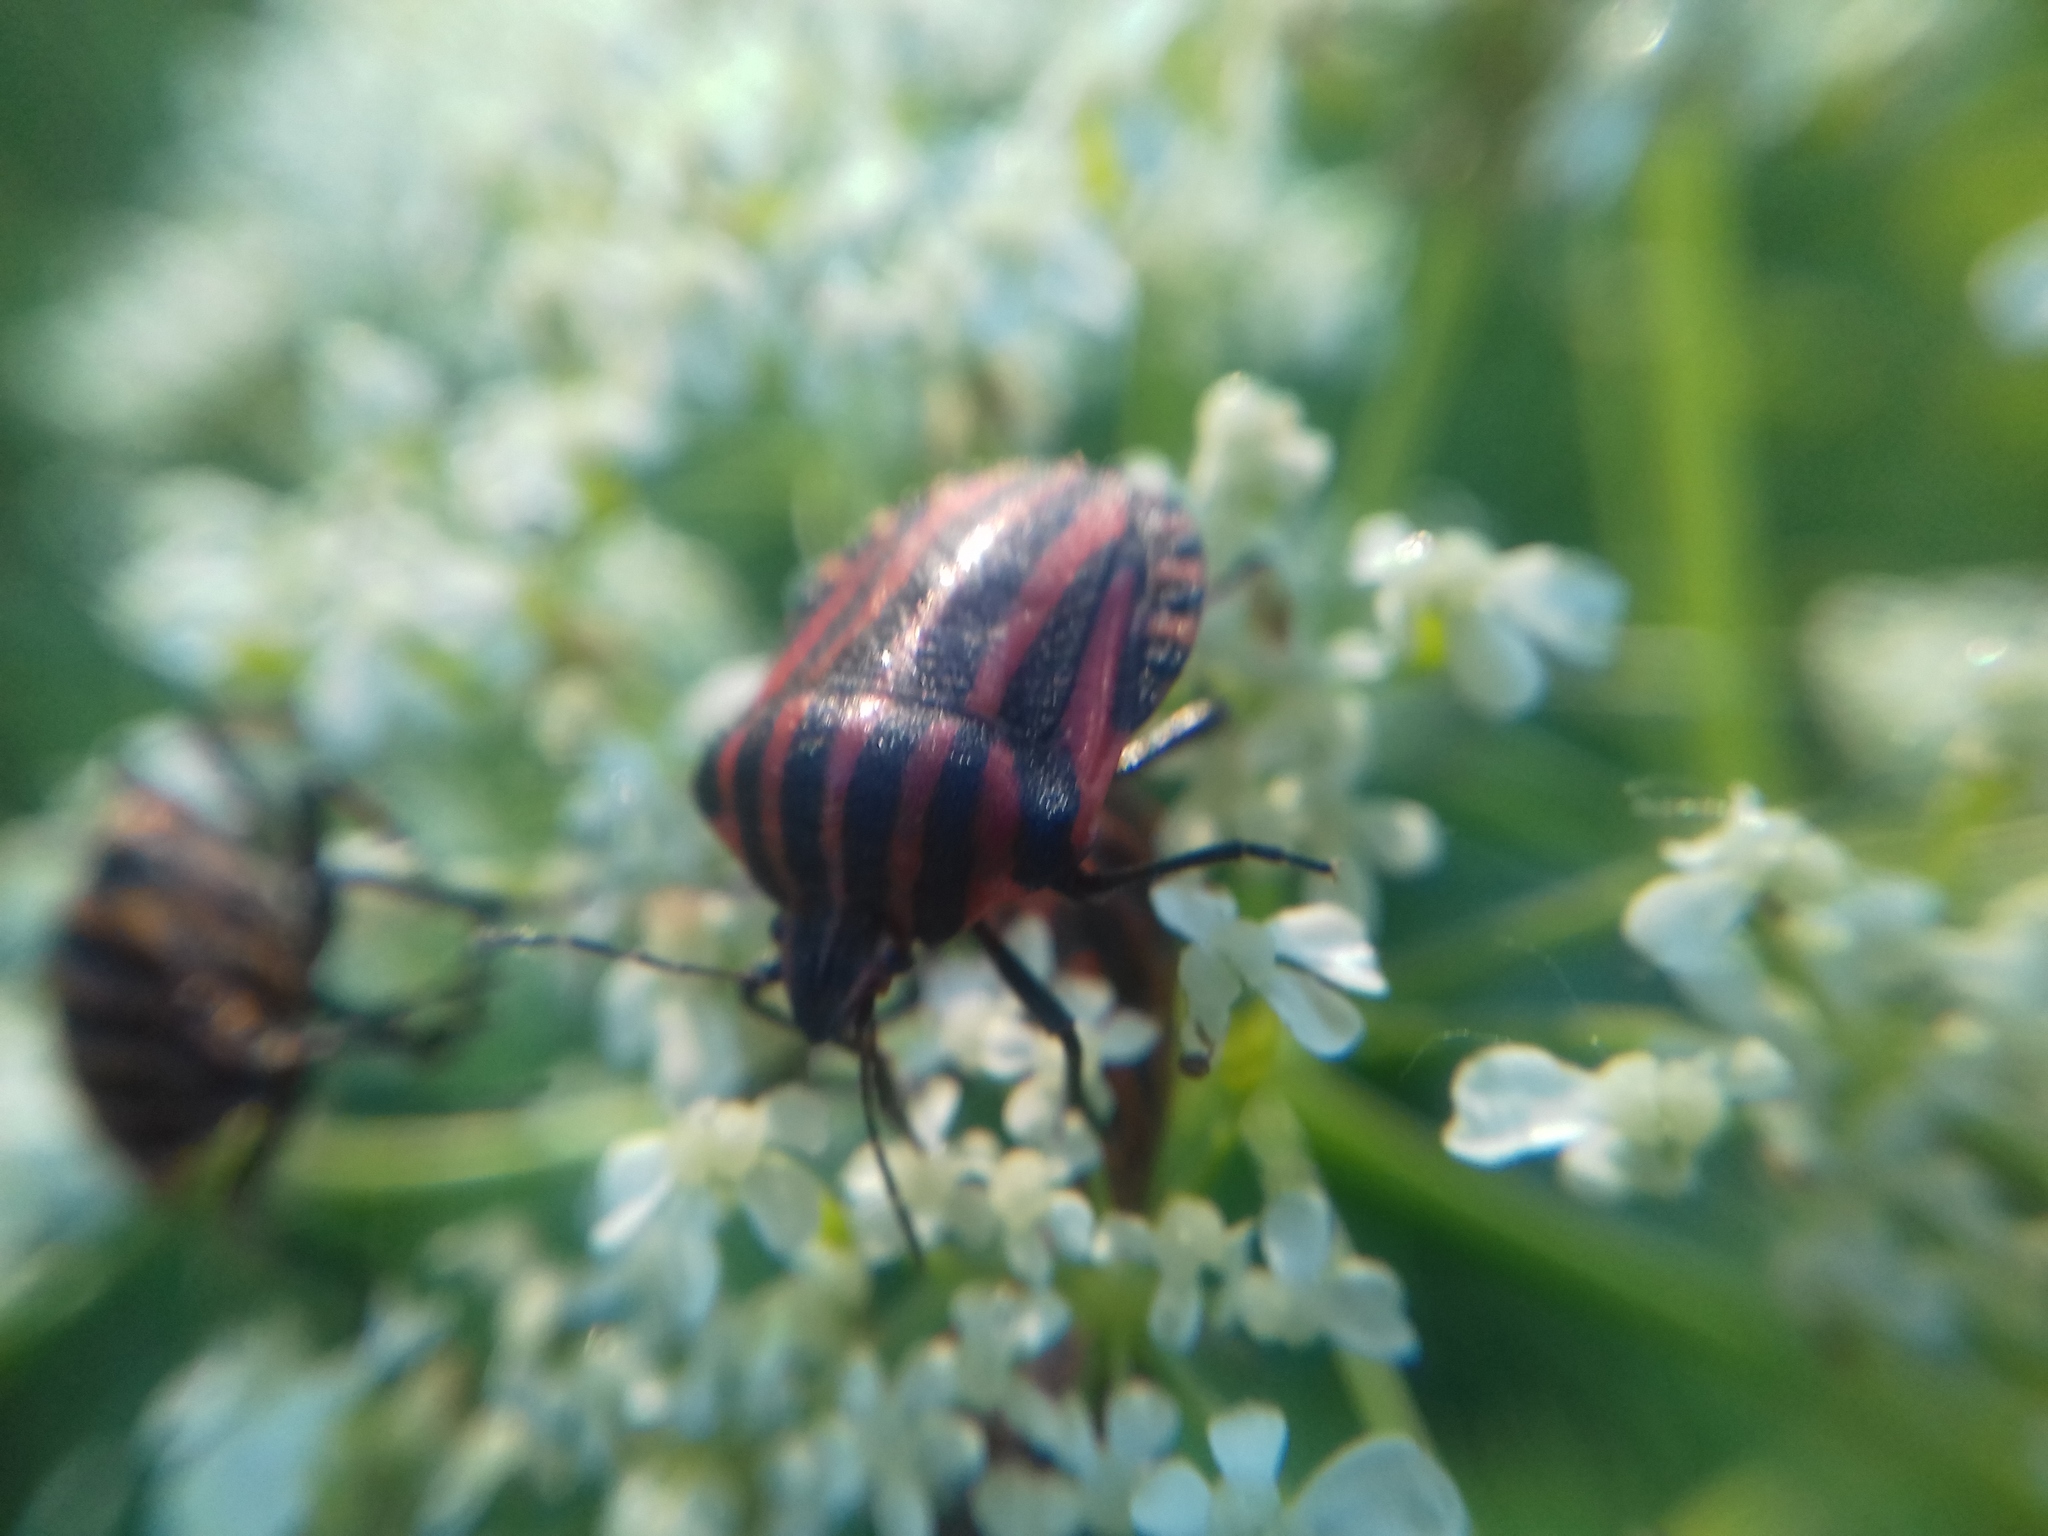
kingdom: Animalia
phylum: Arthropoda
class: Insecta
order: Hemiptera
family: Pentatomidae
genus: Graphosoma
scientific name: Graphosoma italicum
